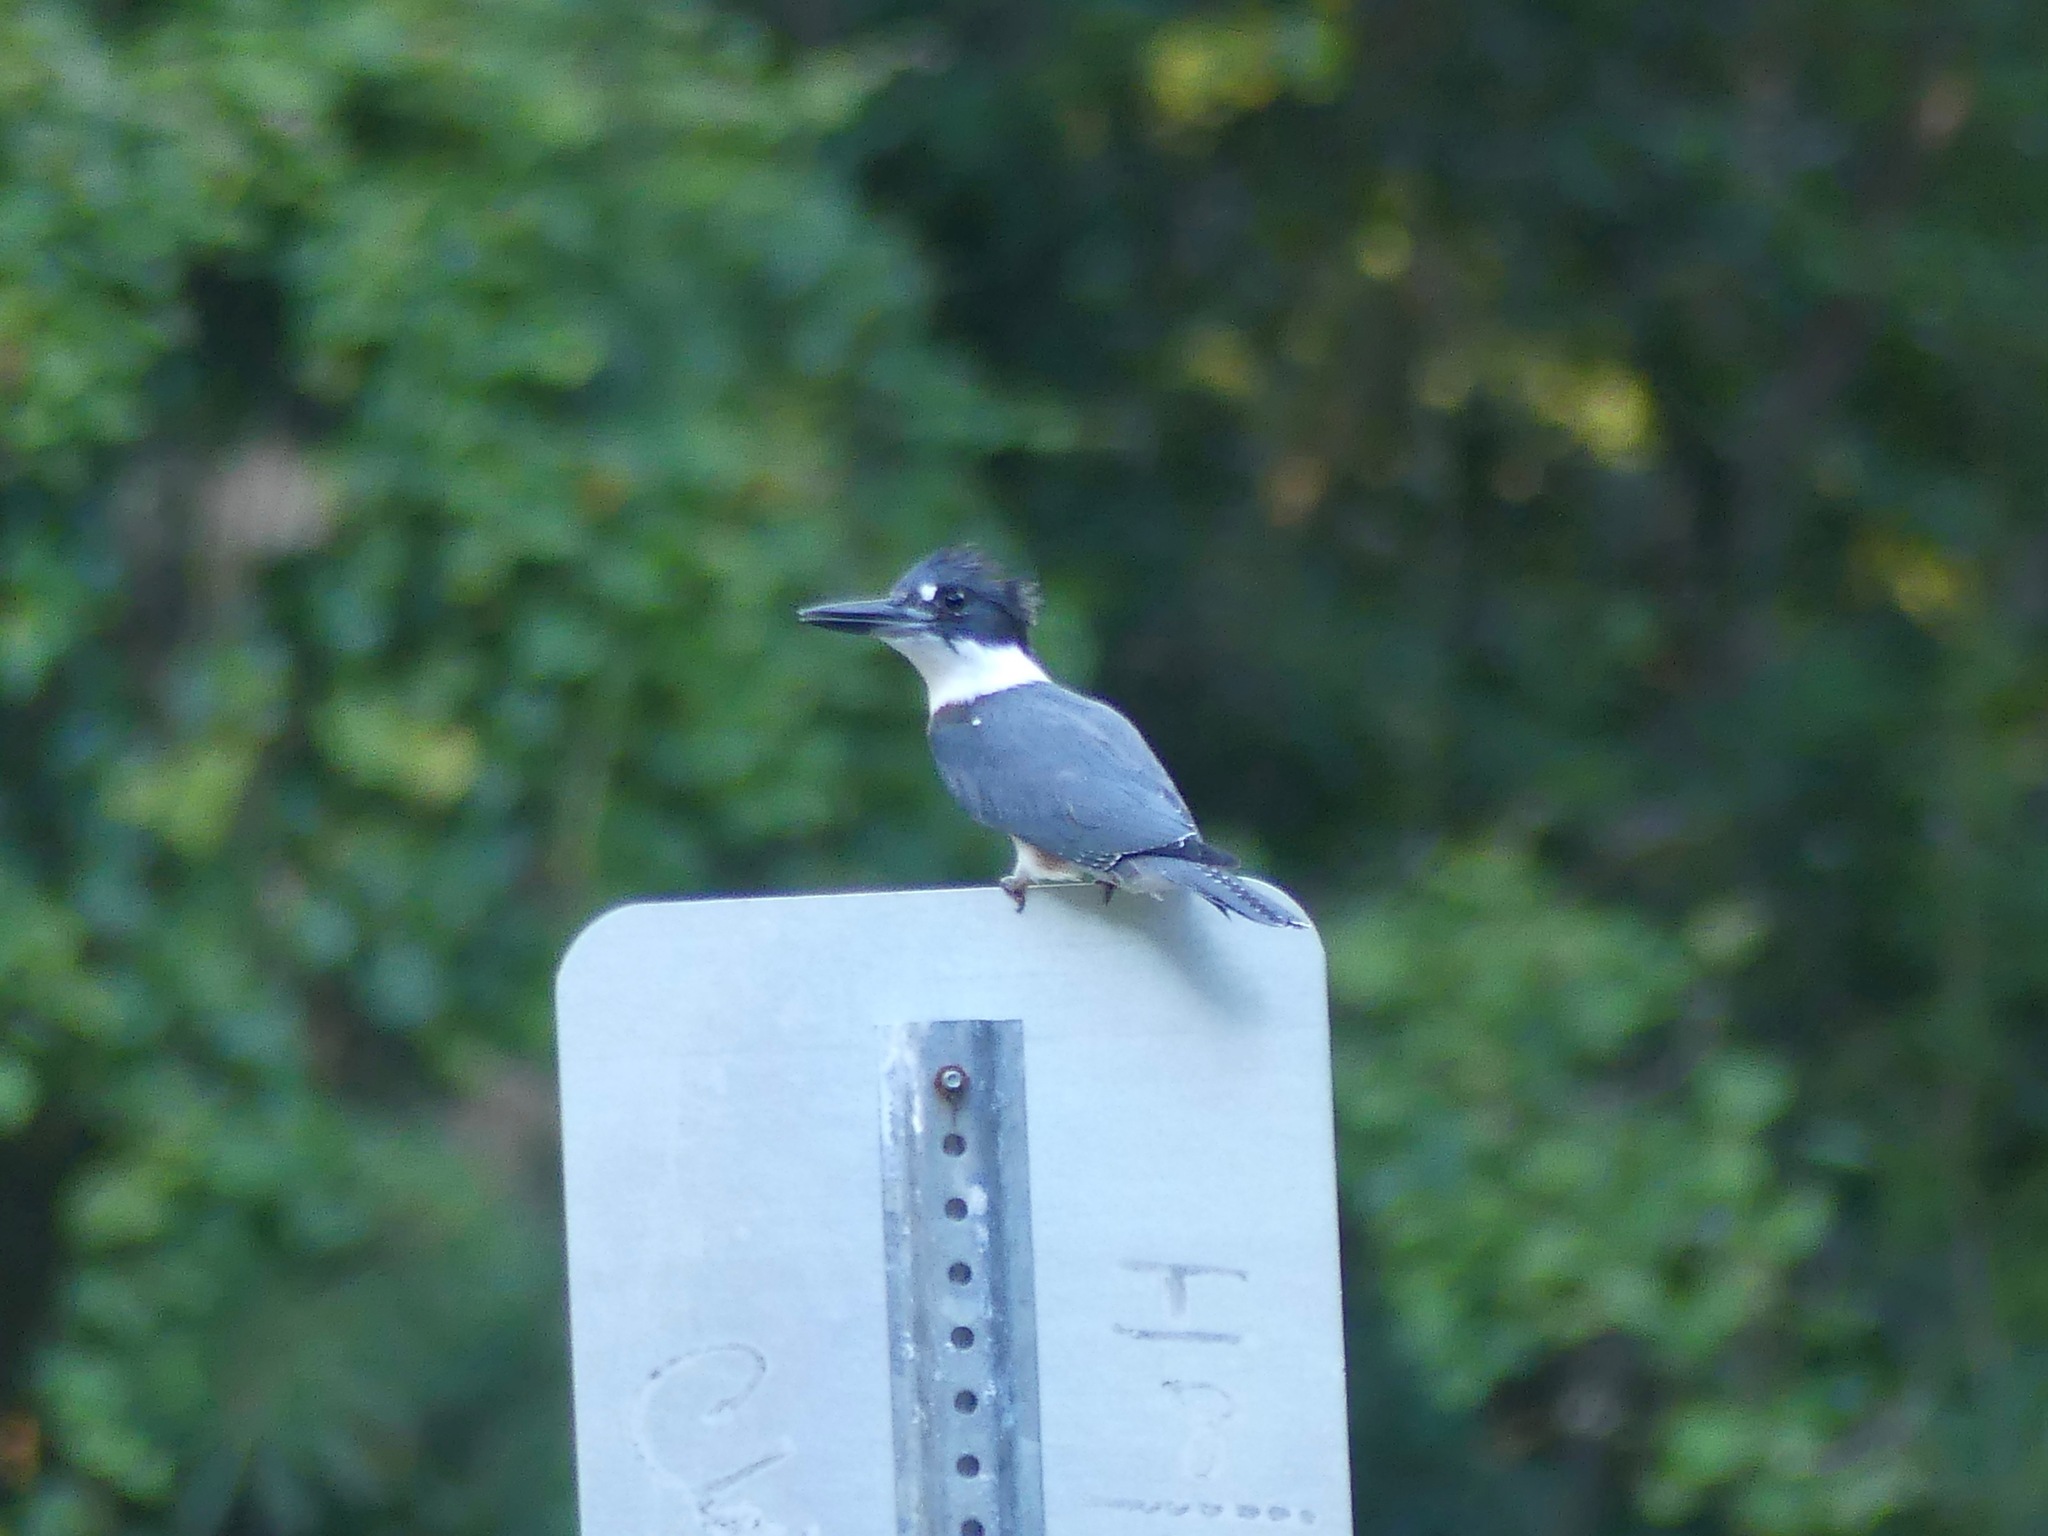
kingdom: Animalia
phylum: Chordata
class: Aves
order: Coraciiformes
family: Alcedinidae
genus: Megaceryle
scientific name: Megaceryle alcyon
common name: Belted kingfisher
